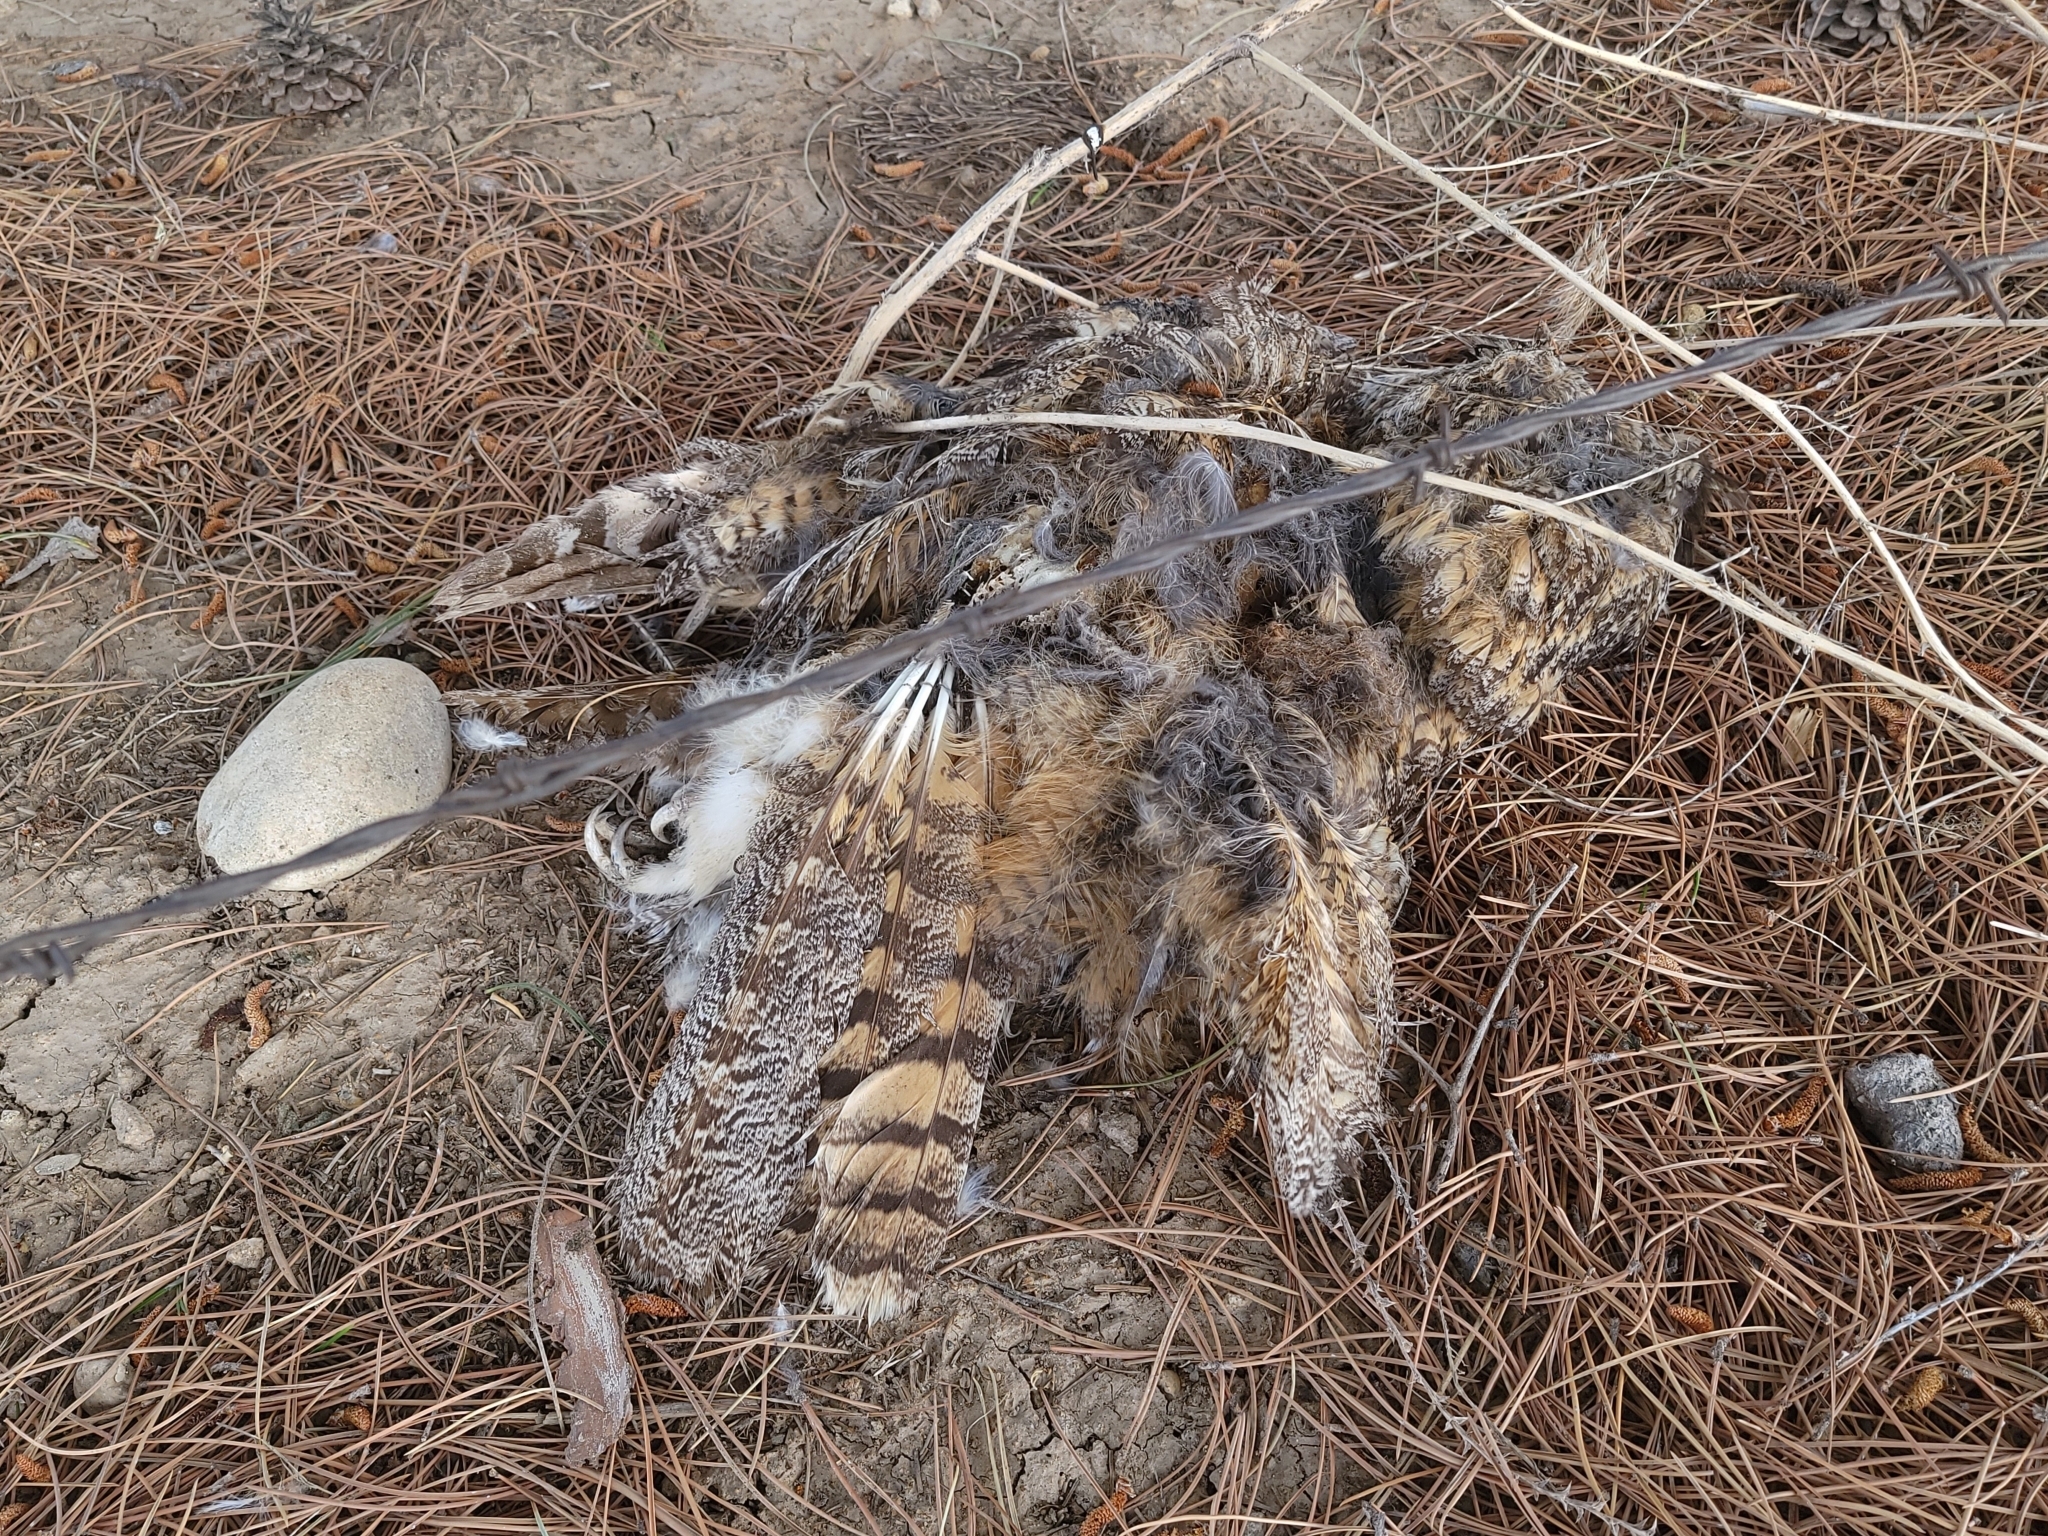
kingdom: Animalia
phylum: Chordata
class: Aves
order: Strigiformes
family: Strigidae
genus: Bubo
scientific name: Bubo virginianus
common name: Great horned owl
